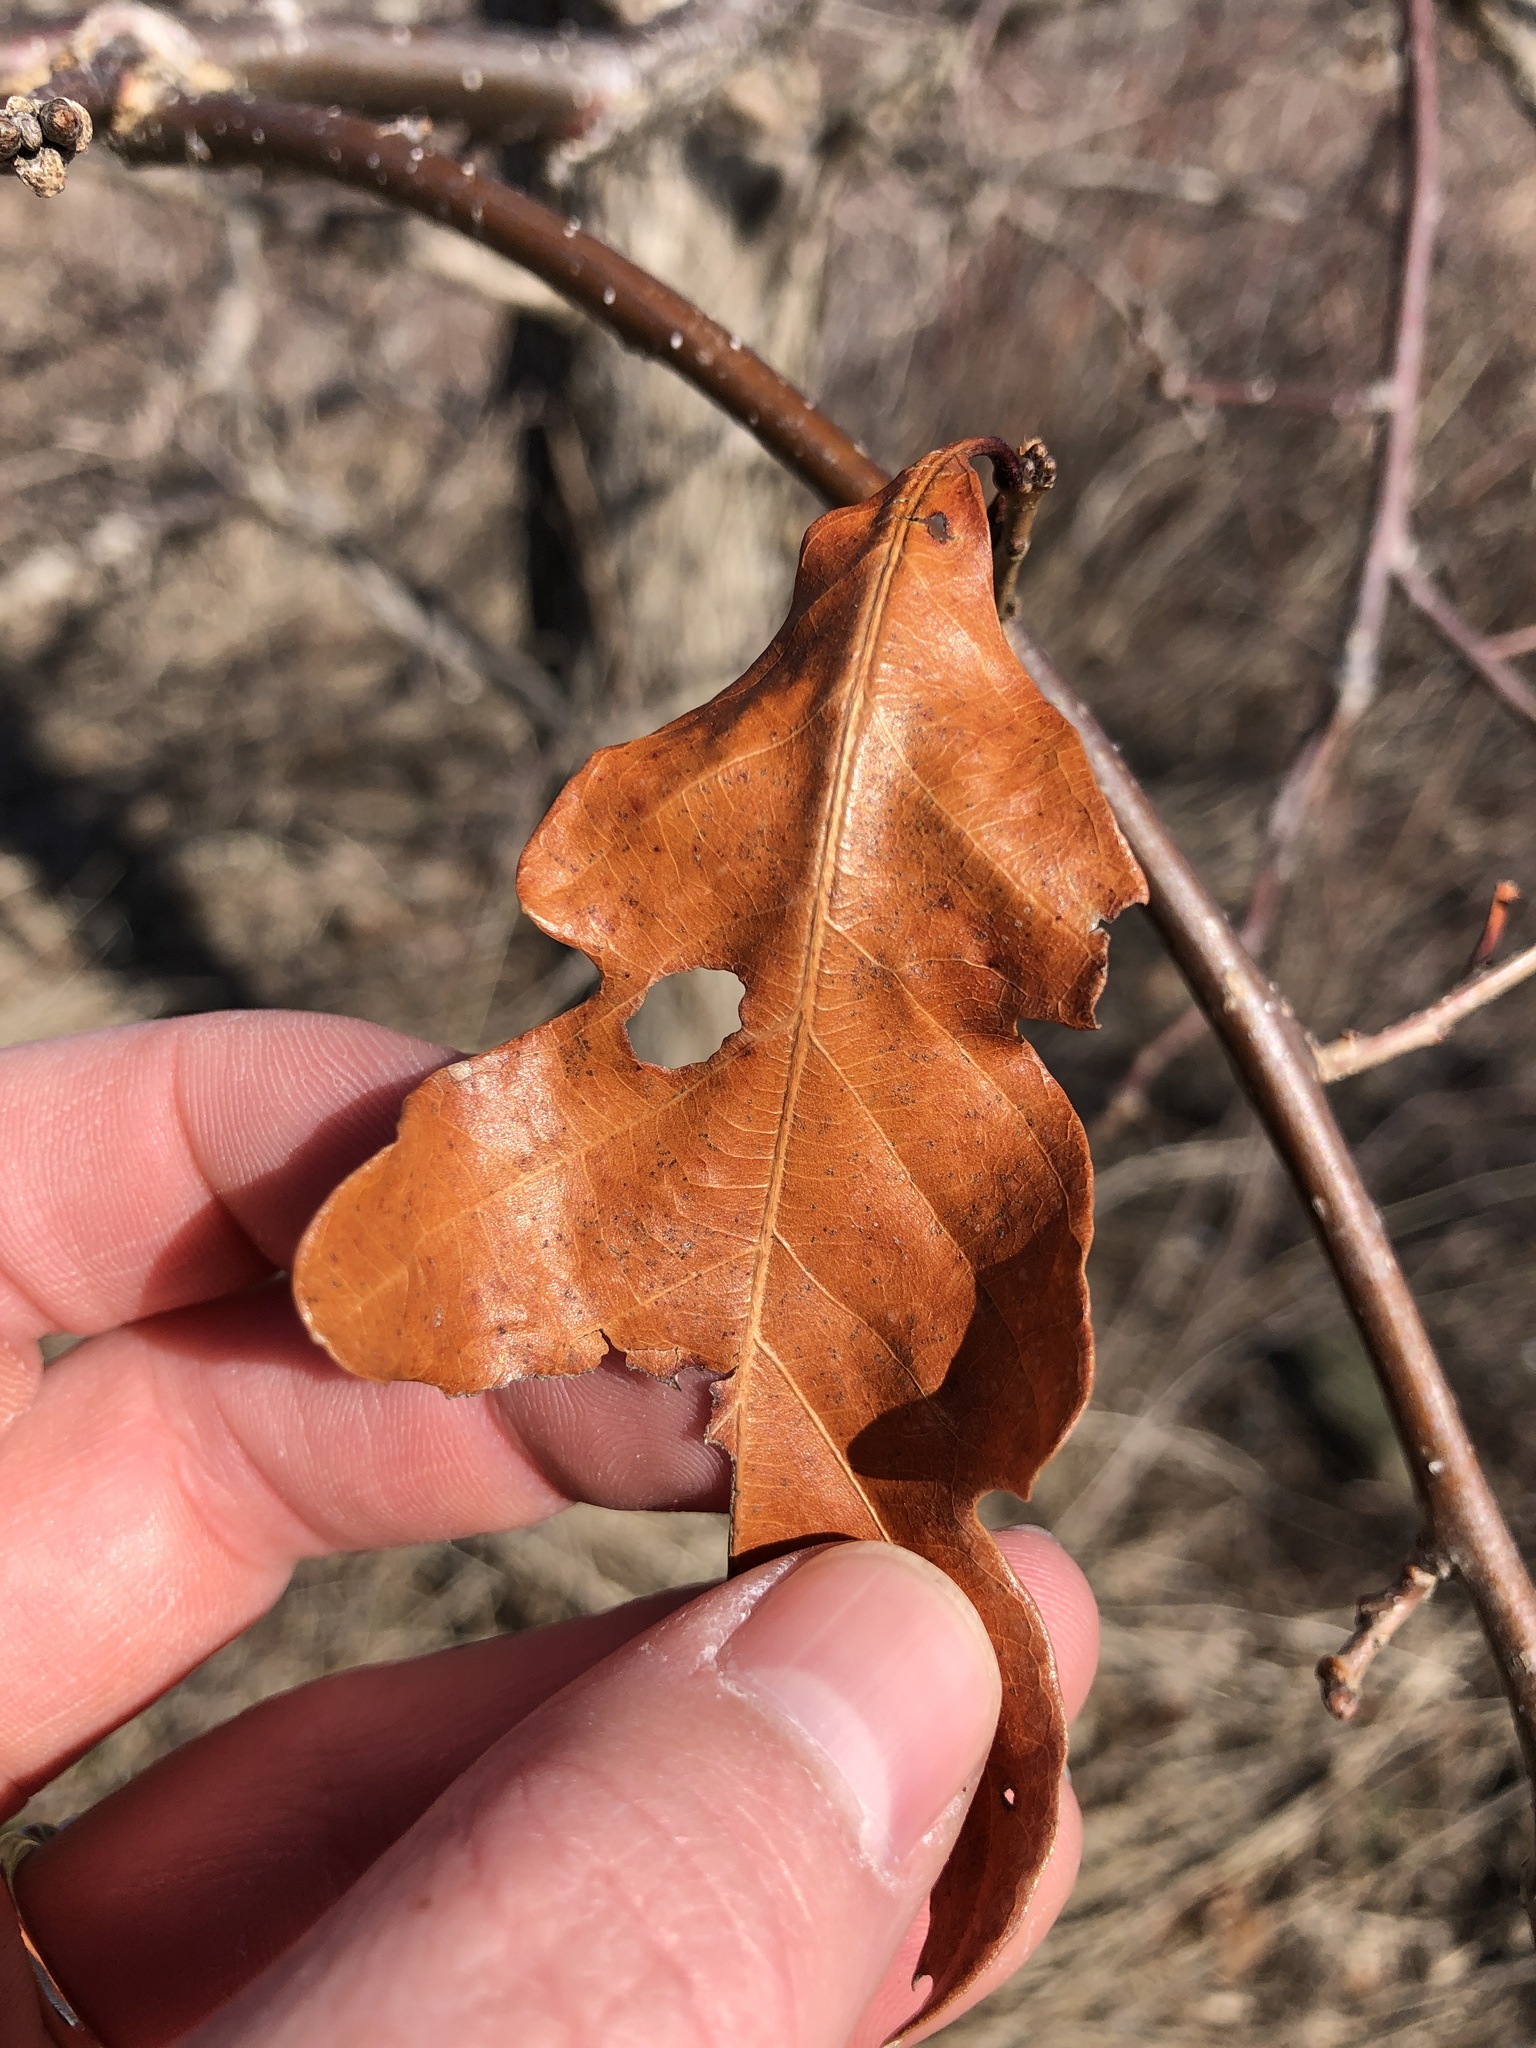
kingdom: Plantae
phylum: Tracheophyta
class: Magnoliopsida
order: Fagales
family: Fagaceae
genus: Quercus
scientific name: Quercus bicolor
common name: Swamp white oak
